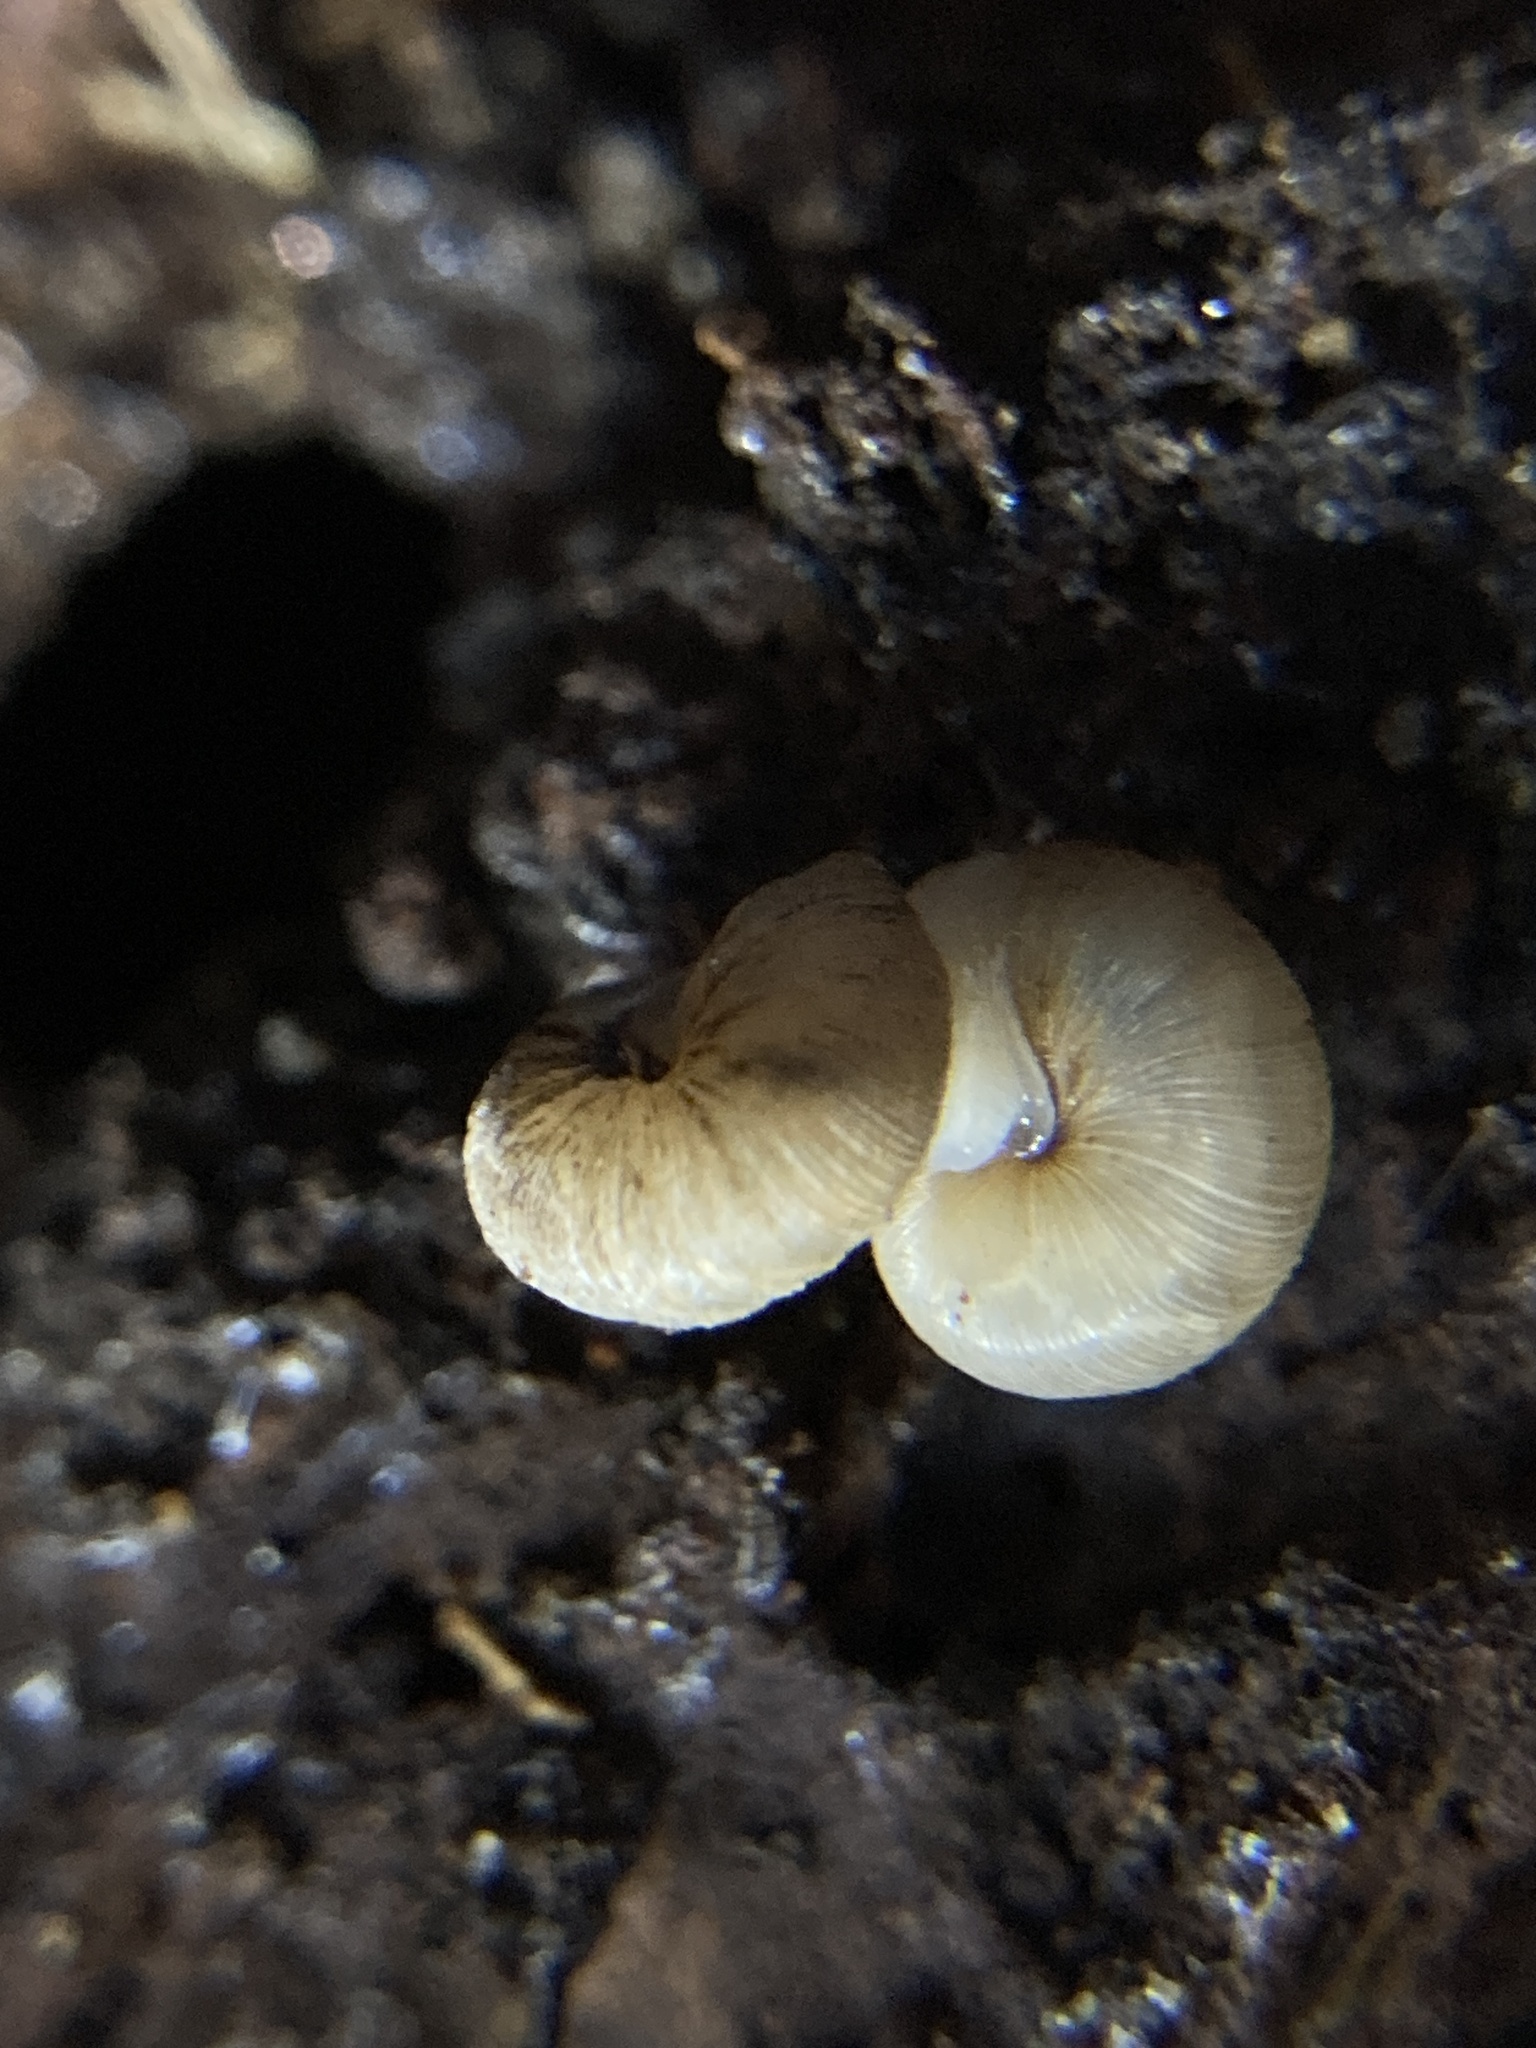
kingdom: Animalia
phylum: Mollusca
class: Gastropoda
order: Stylommatophora
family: Charopidae
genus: Elsothera
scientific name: Elsothera sericatula
